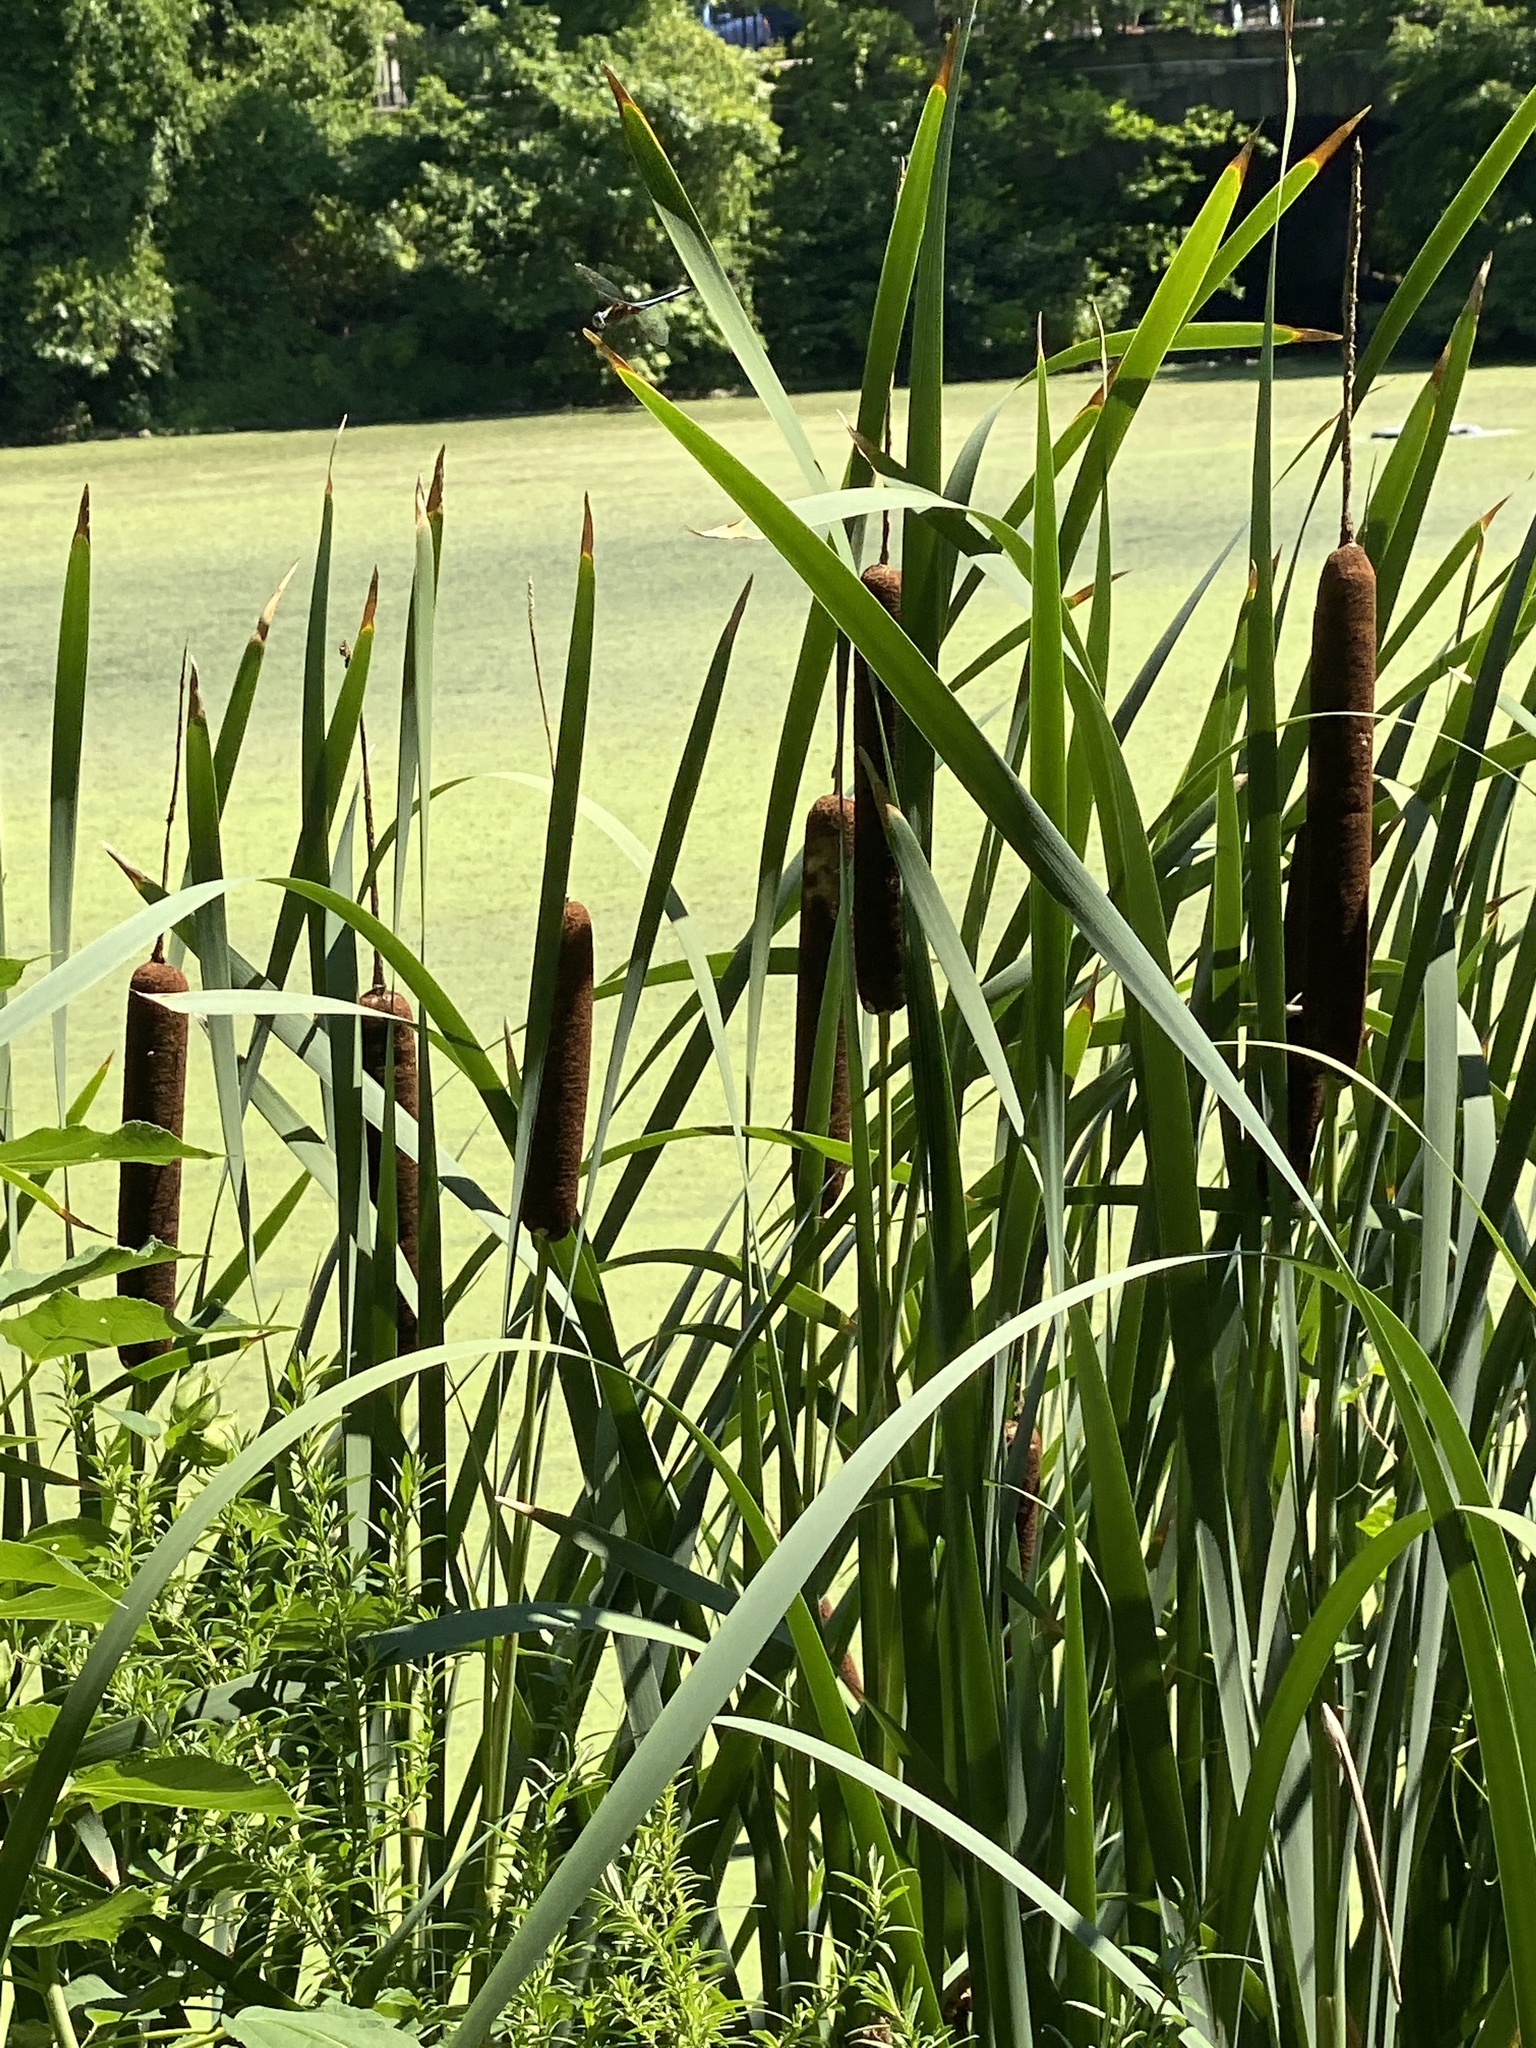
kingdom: Plantae
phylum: Tracheophyta
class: Liliopsida
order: Poales
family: Typhaceae
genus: Typha
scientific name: Typha latifolia
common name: Broadleaf cattail
